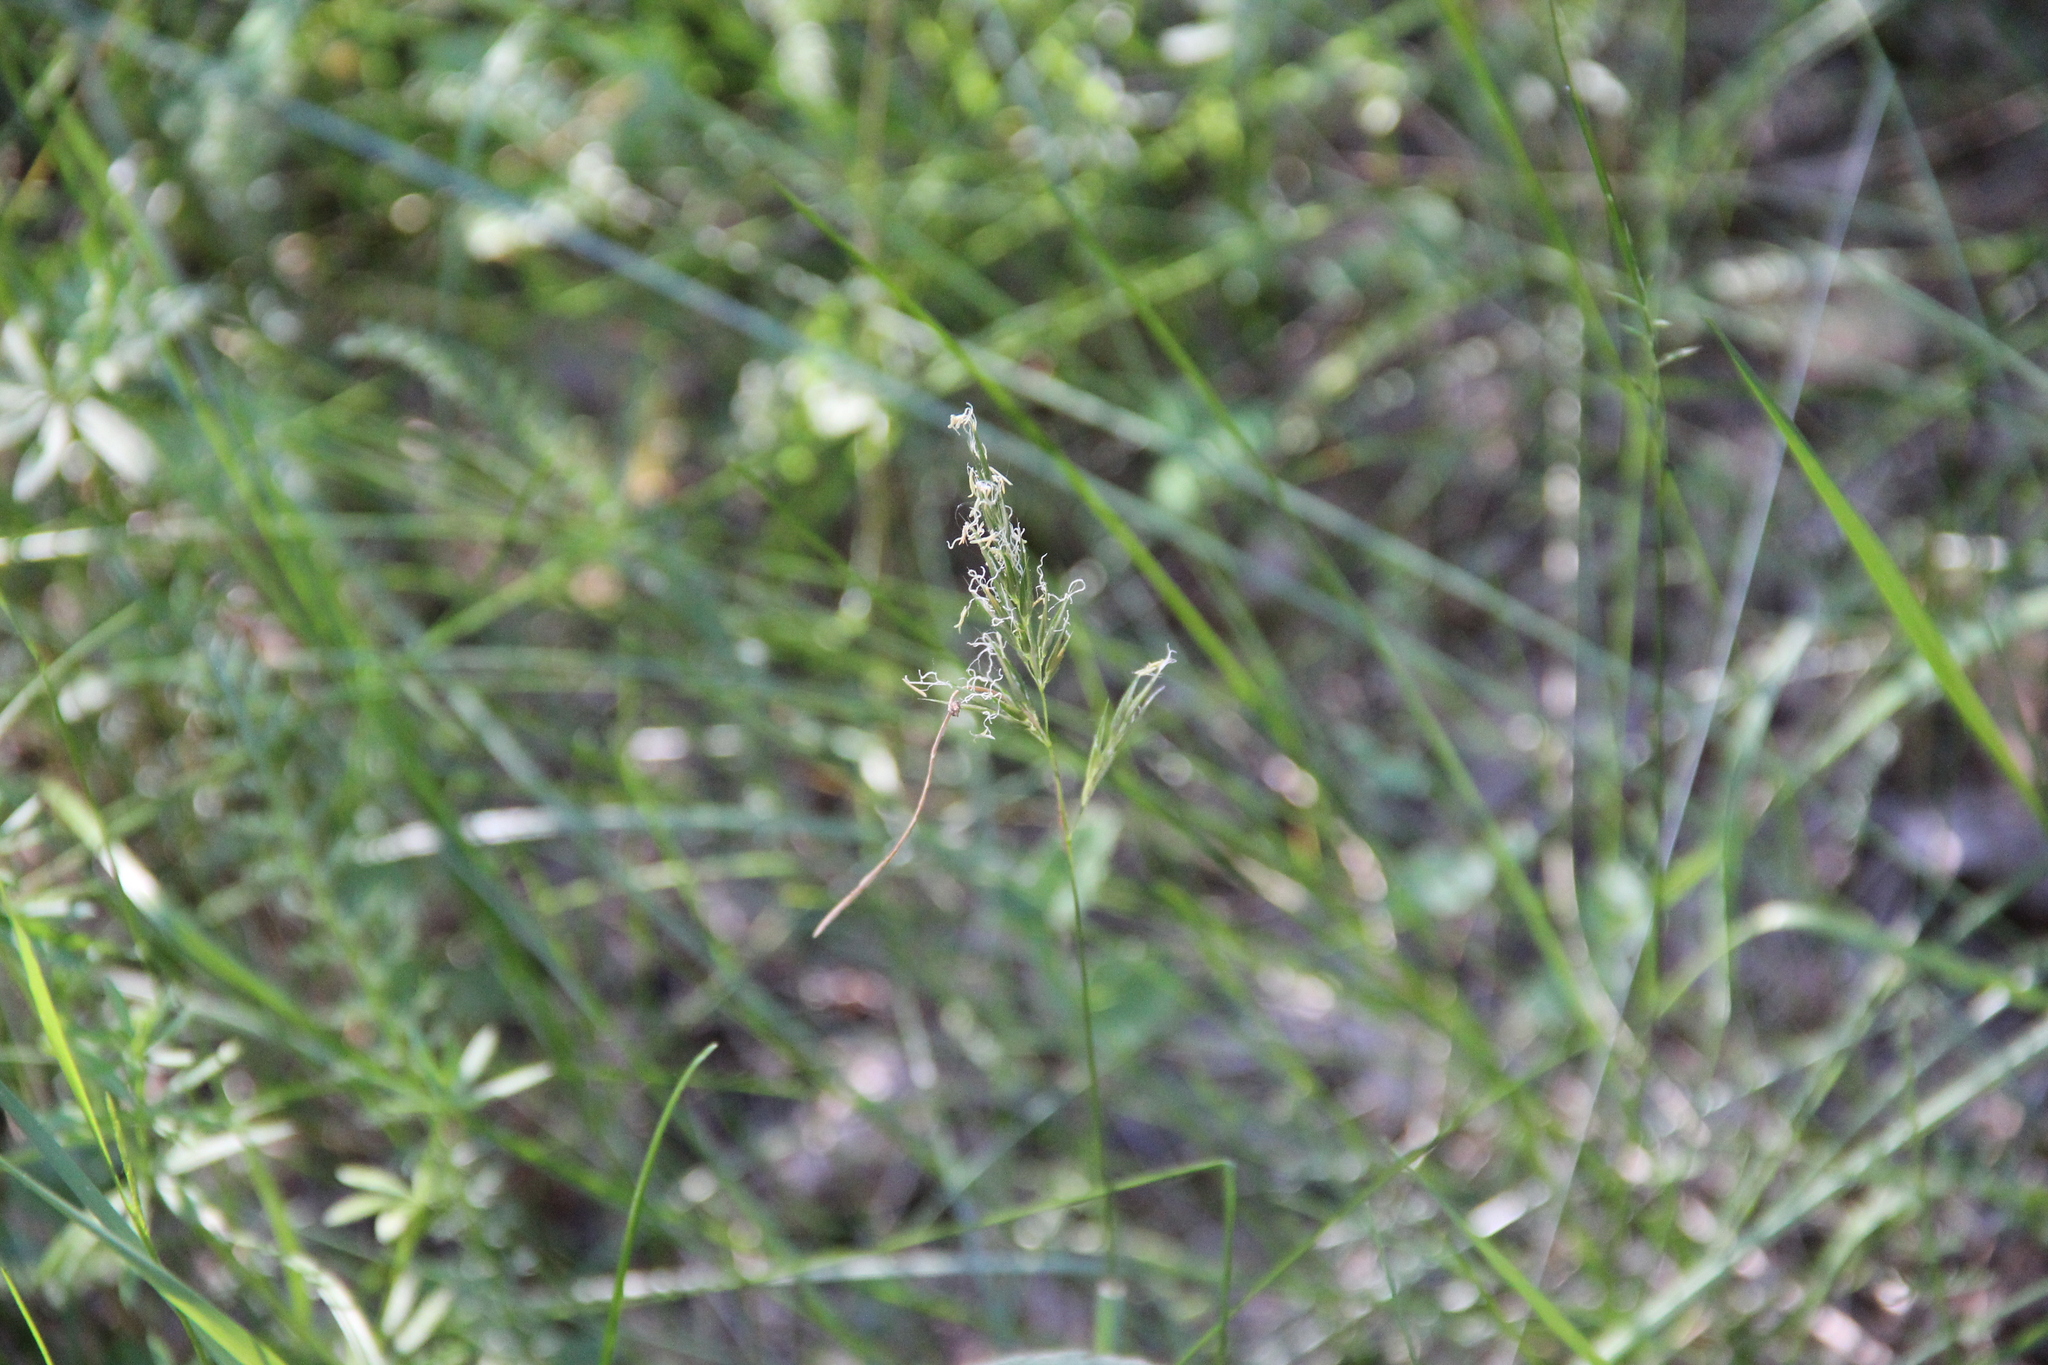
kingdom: Plantae
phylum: Tracheophyta
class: Liliopsida
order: Poales
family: Poaceae
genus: Anthoxanthum
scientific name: Anthoxanthum odoratum
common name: Sweet vernalgrass
